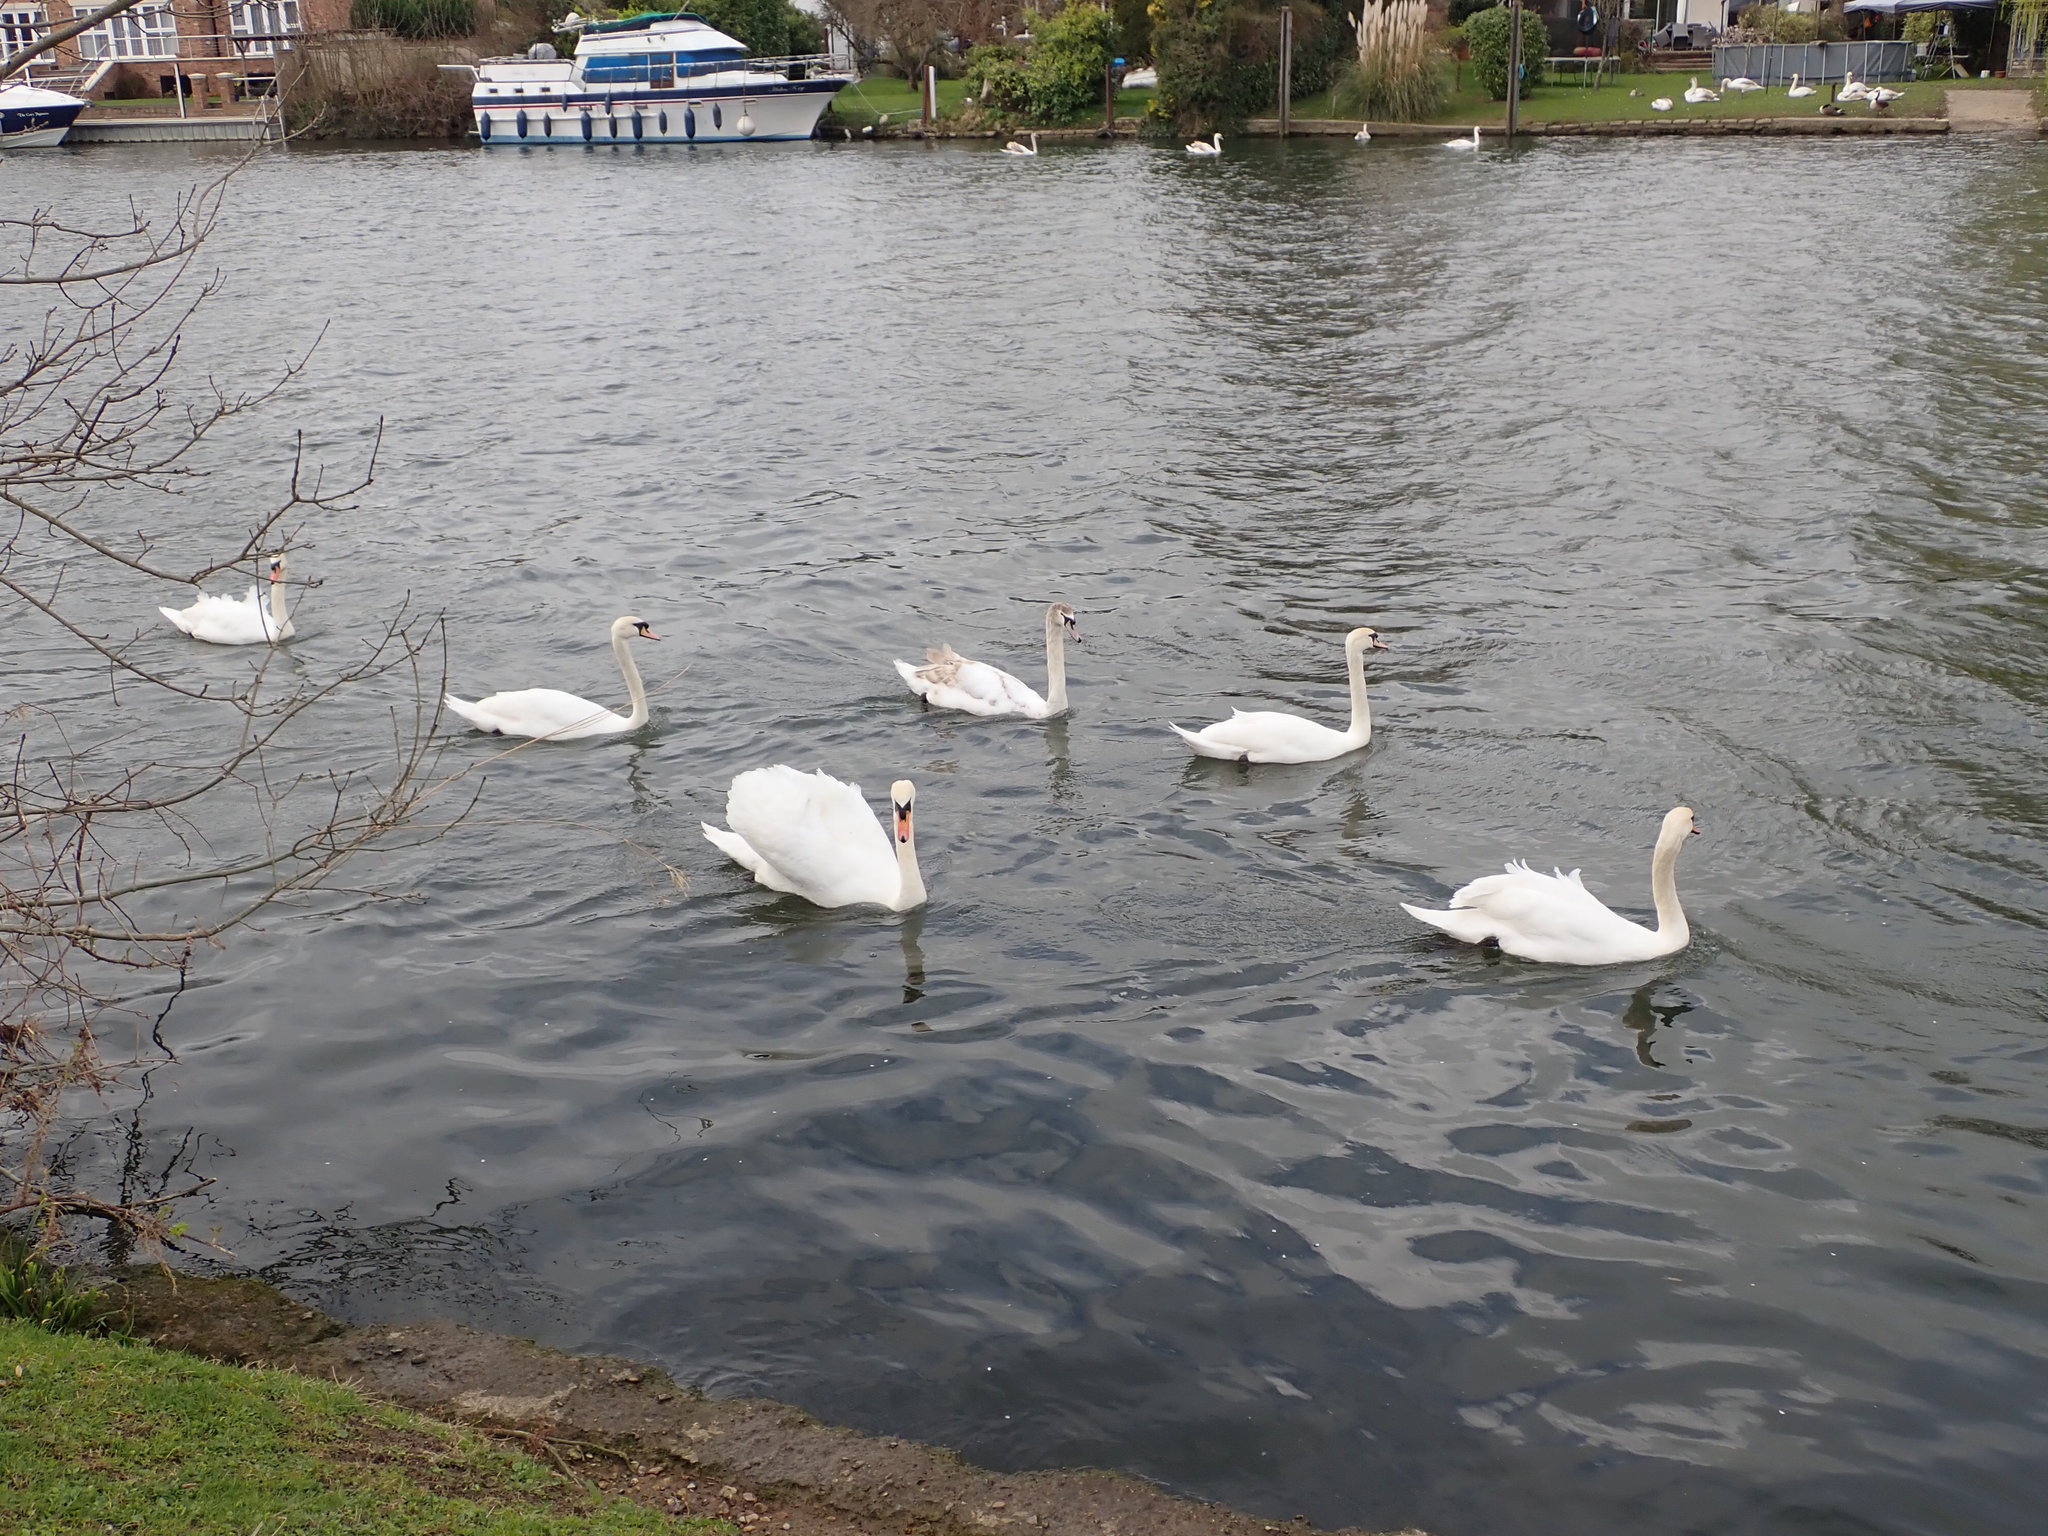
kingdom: Animalia
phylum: Chordata
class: Aves
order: Anseriformes
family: Anatidae
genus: Cygnus
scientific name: Cygnus olor
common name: Mute swan
